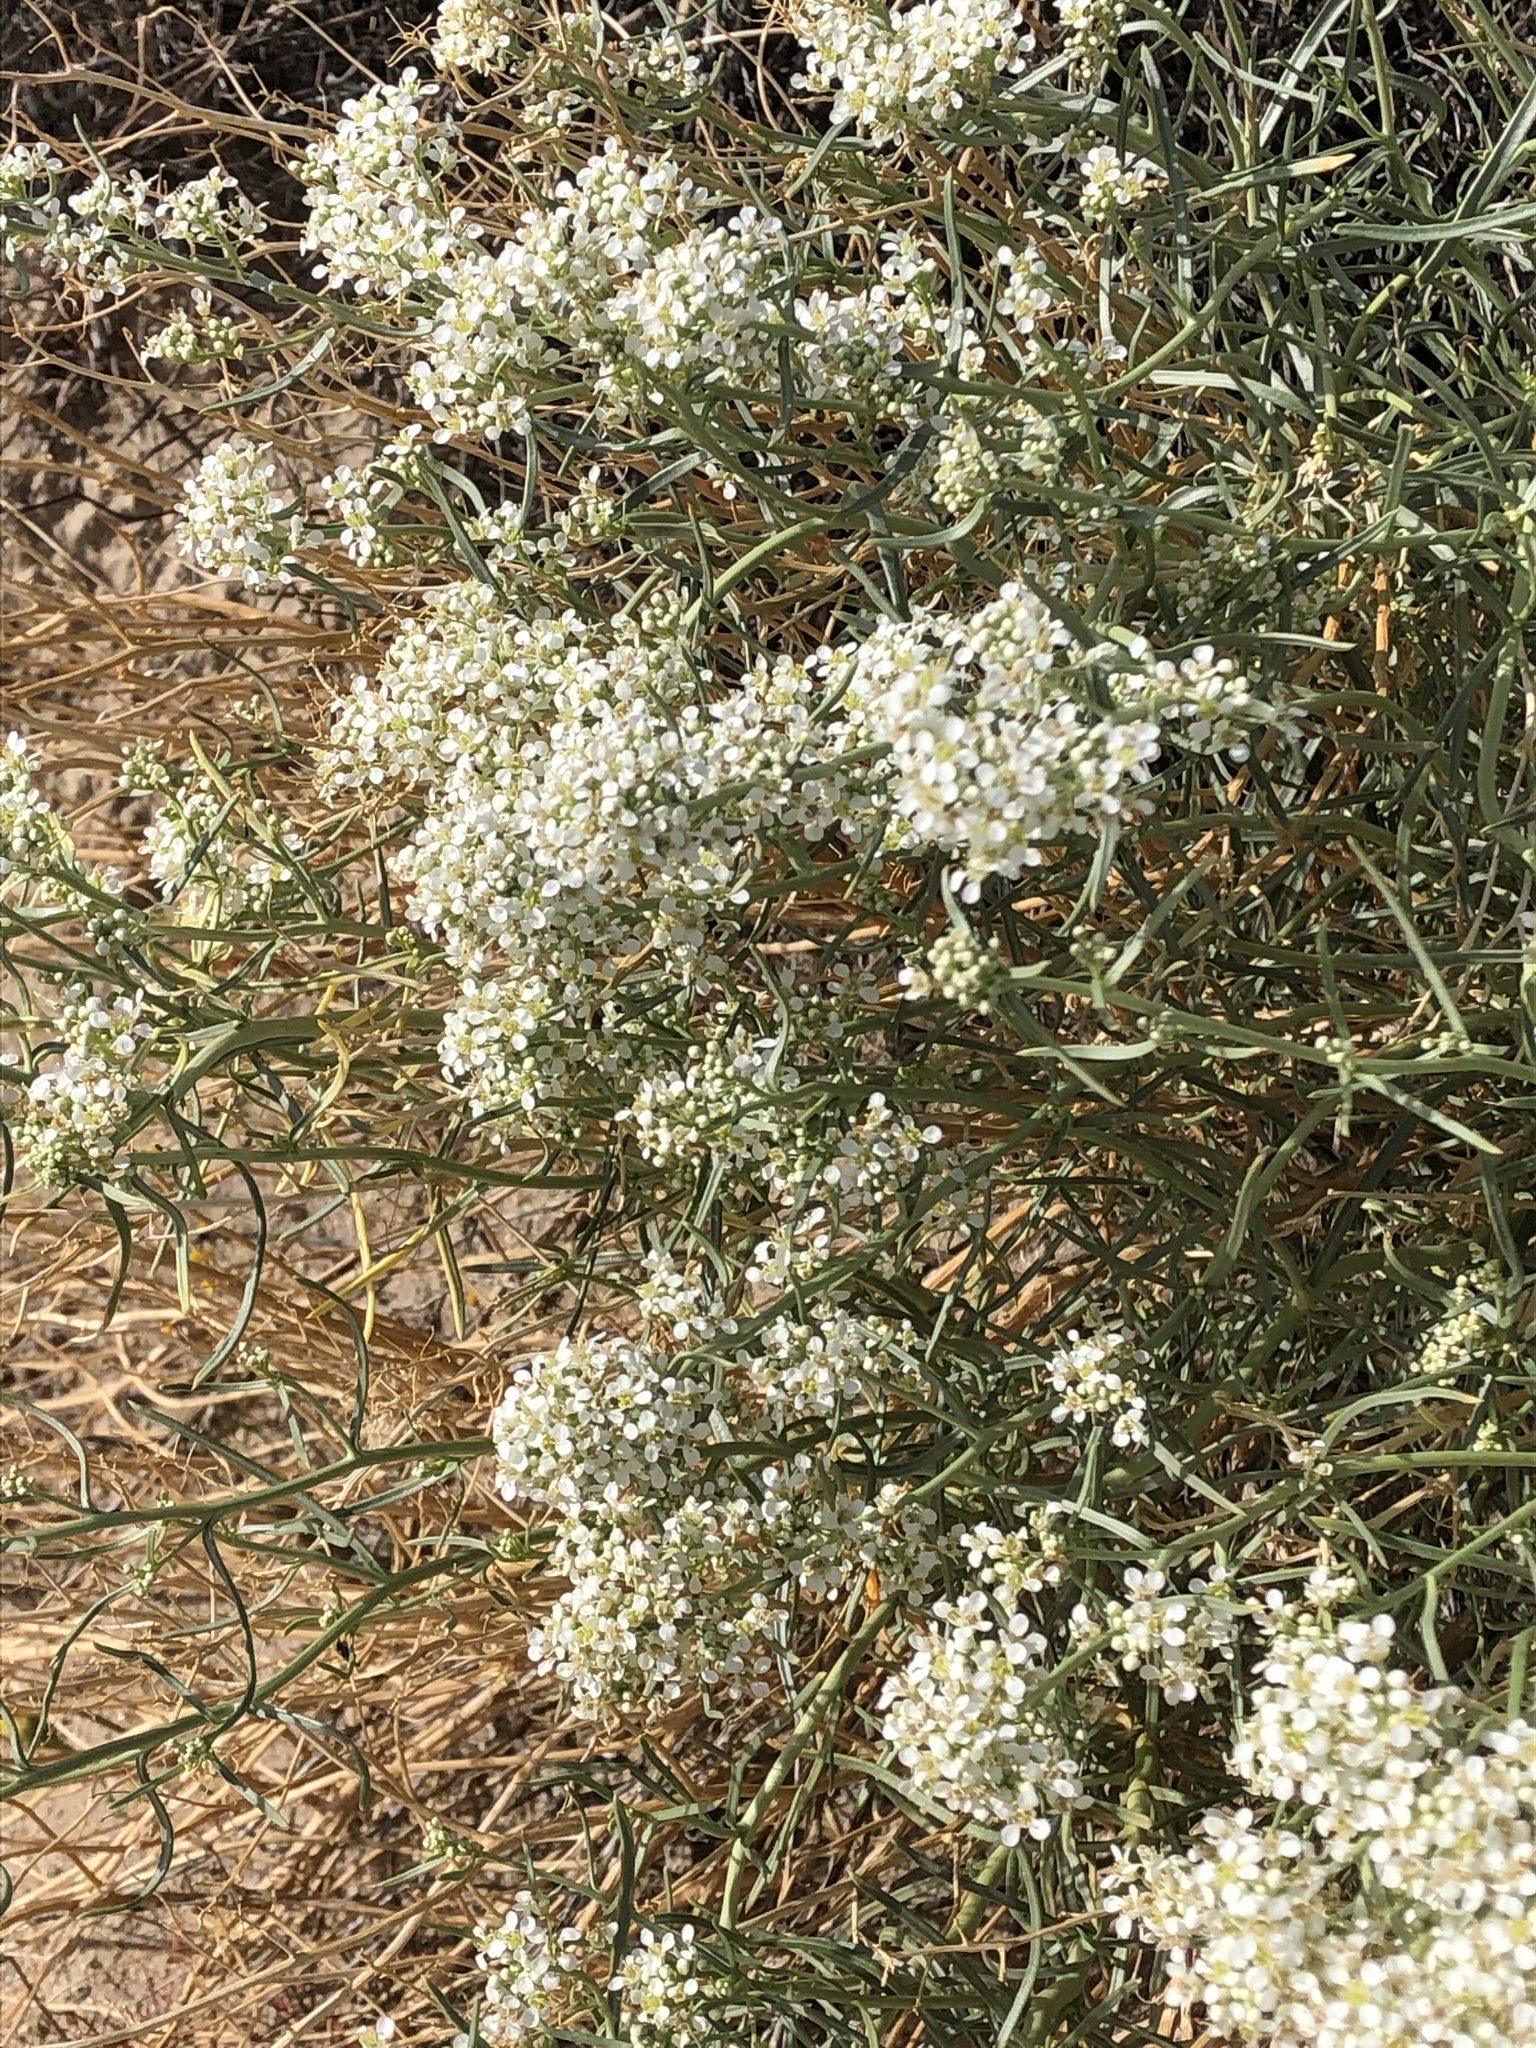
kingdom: Plantae
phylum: Tracheophyta
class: Magnoliopsida
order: Brassicales
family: Brassicaceae
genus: Lepidium
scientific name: Lepidium fremontii
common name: Fremont's pepperwort
